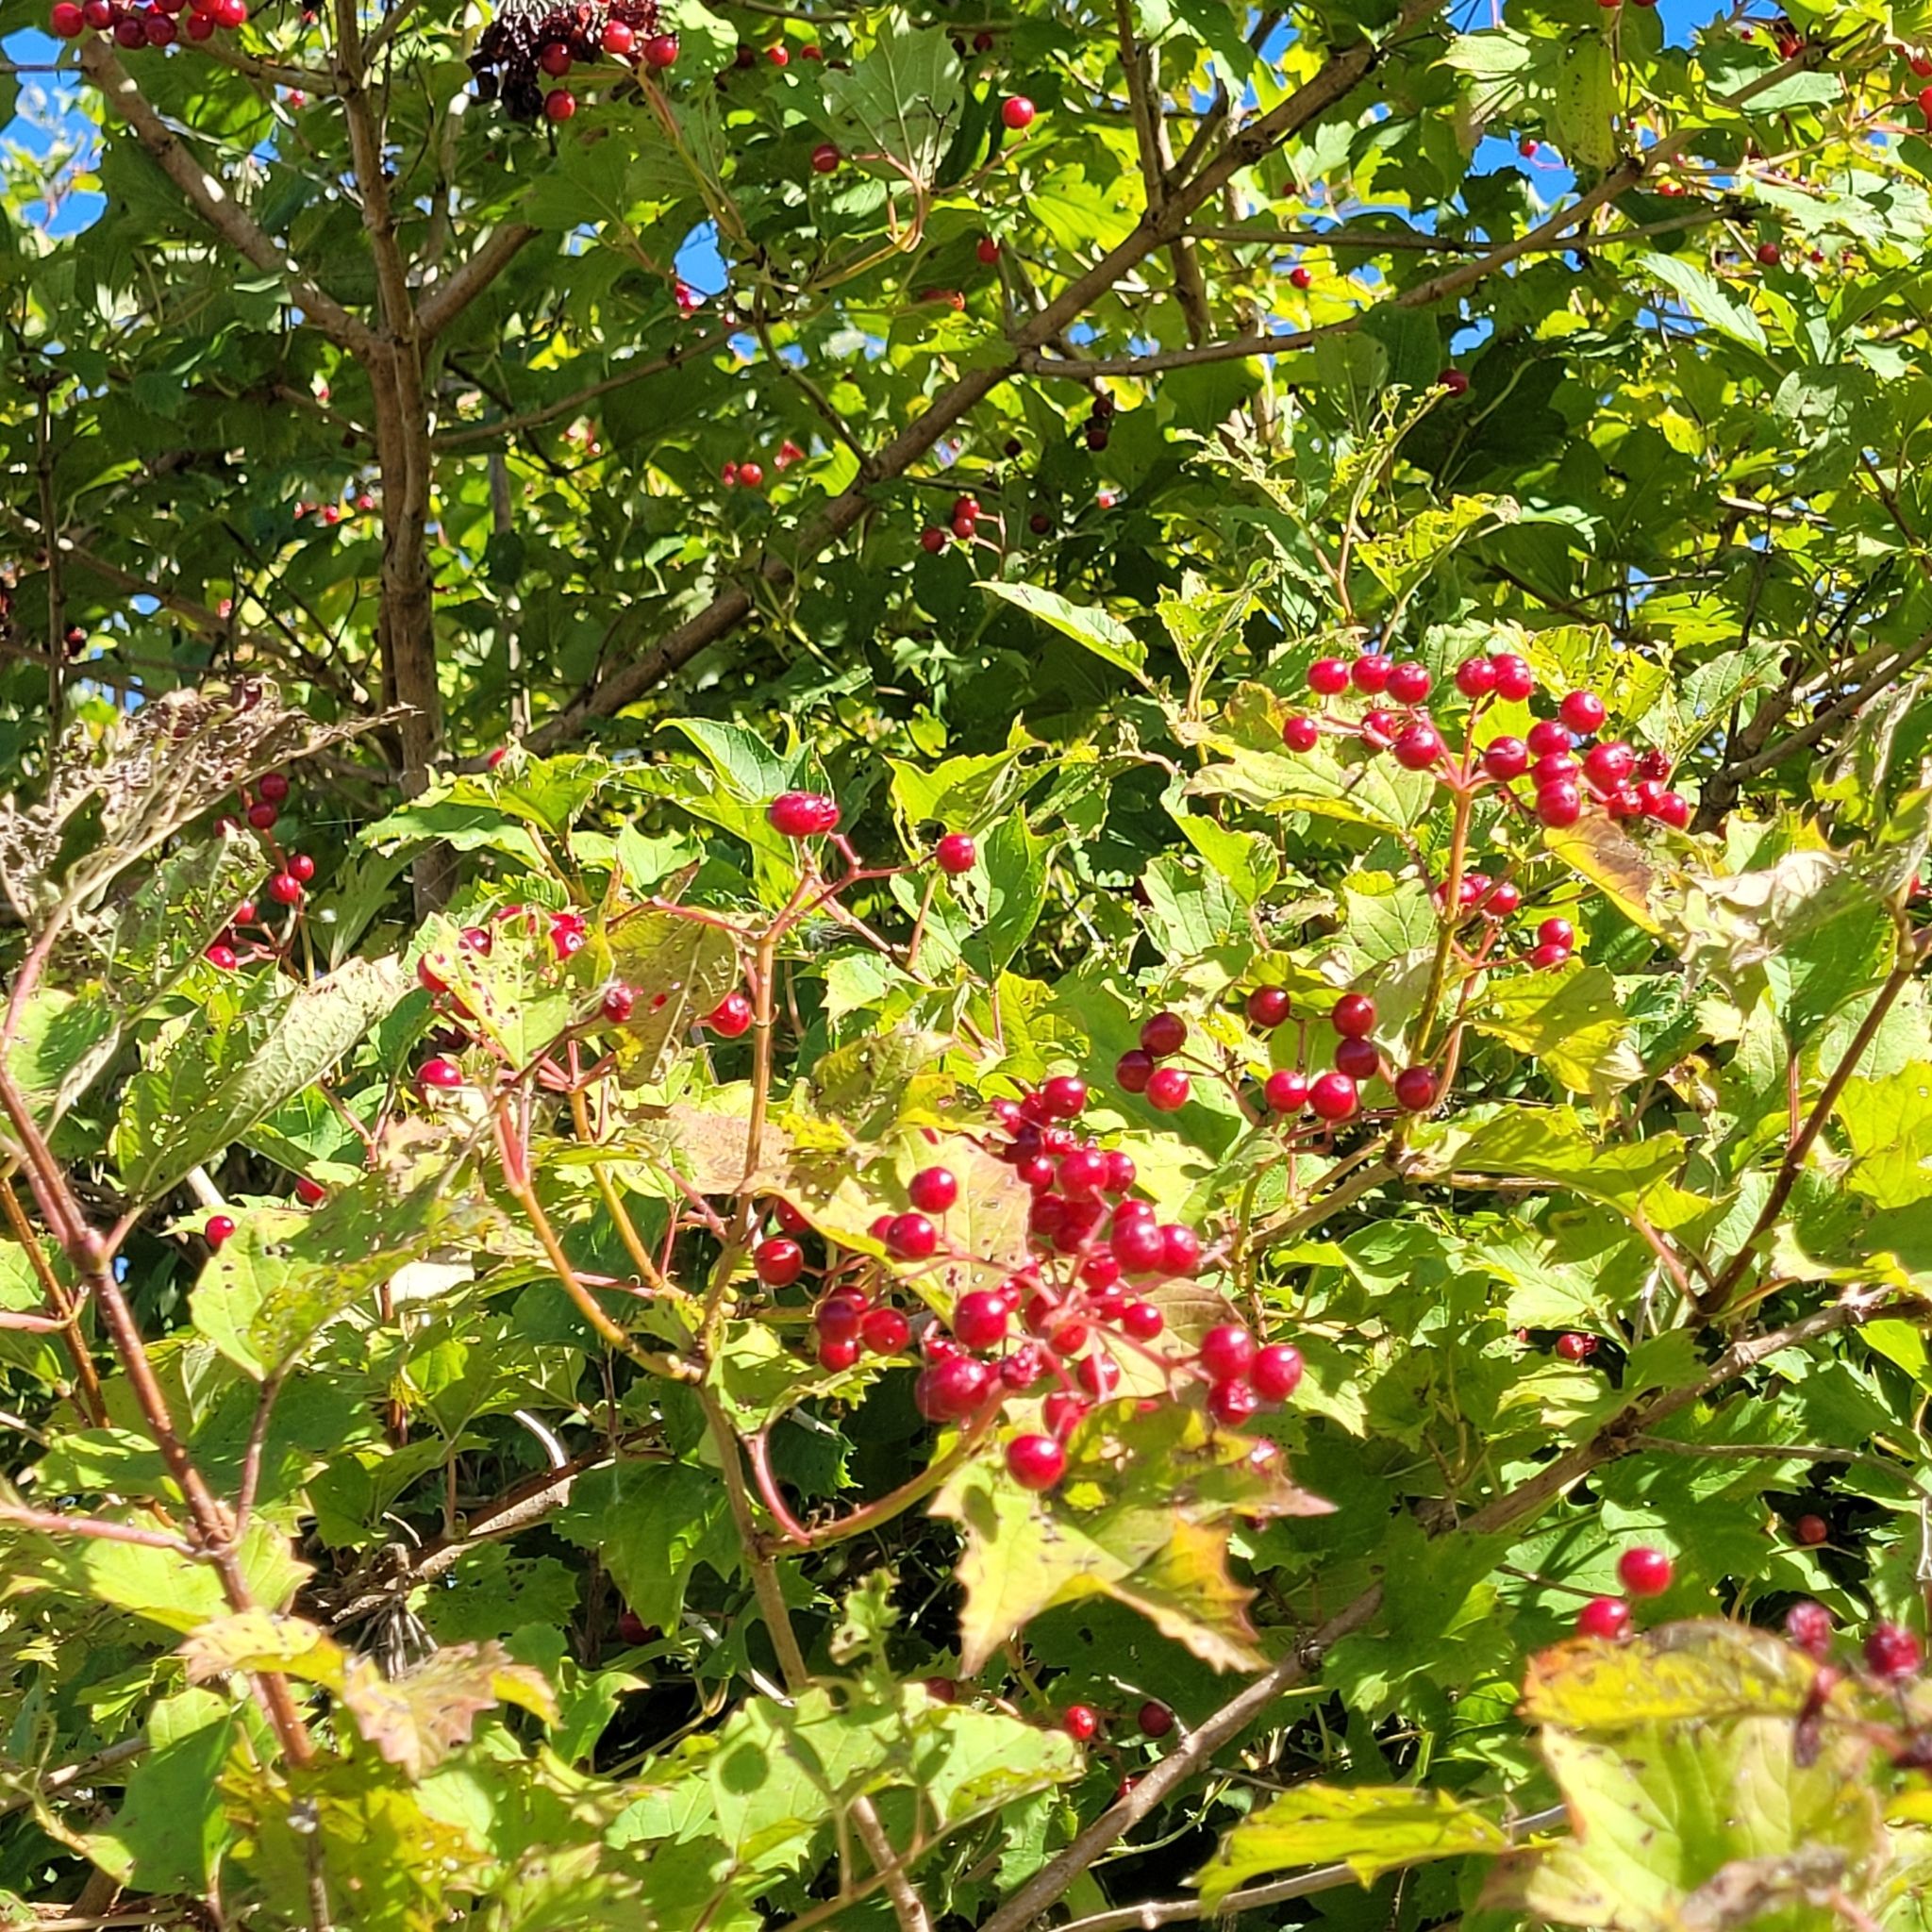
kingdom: Plantae
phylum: Tracheophyta
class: Magnoliopsida
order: Dipsacales
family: Viburnaceae
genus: Viburnum
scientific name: Viburnum opulus
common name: Guelder-rose
